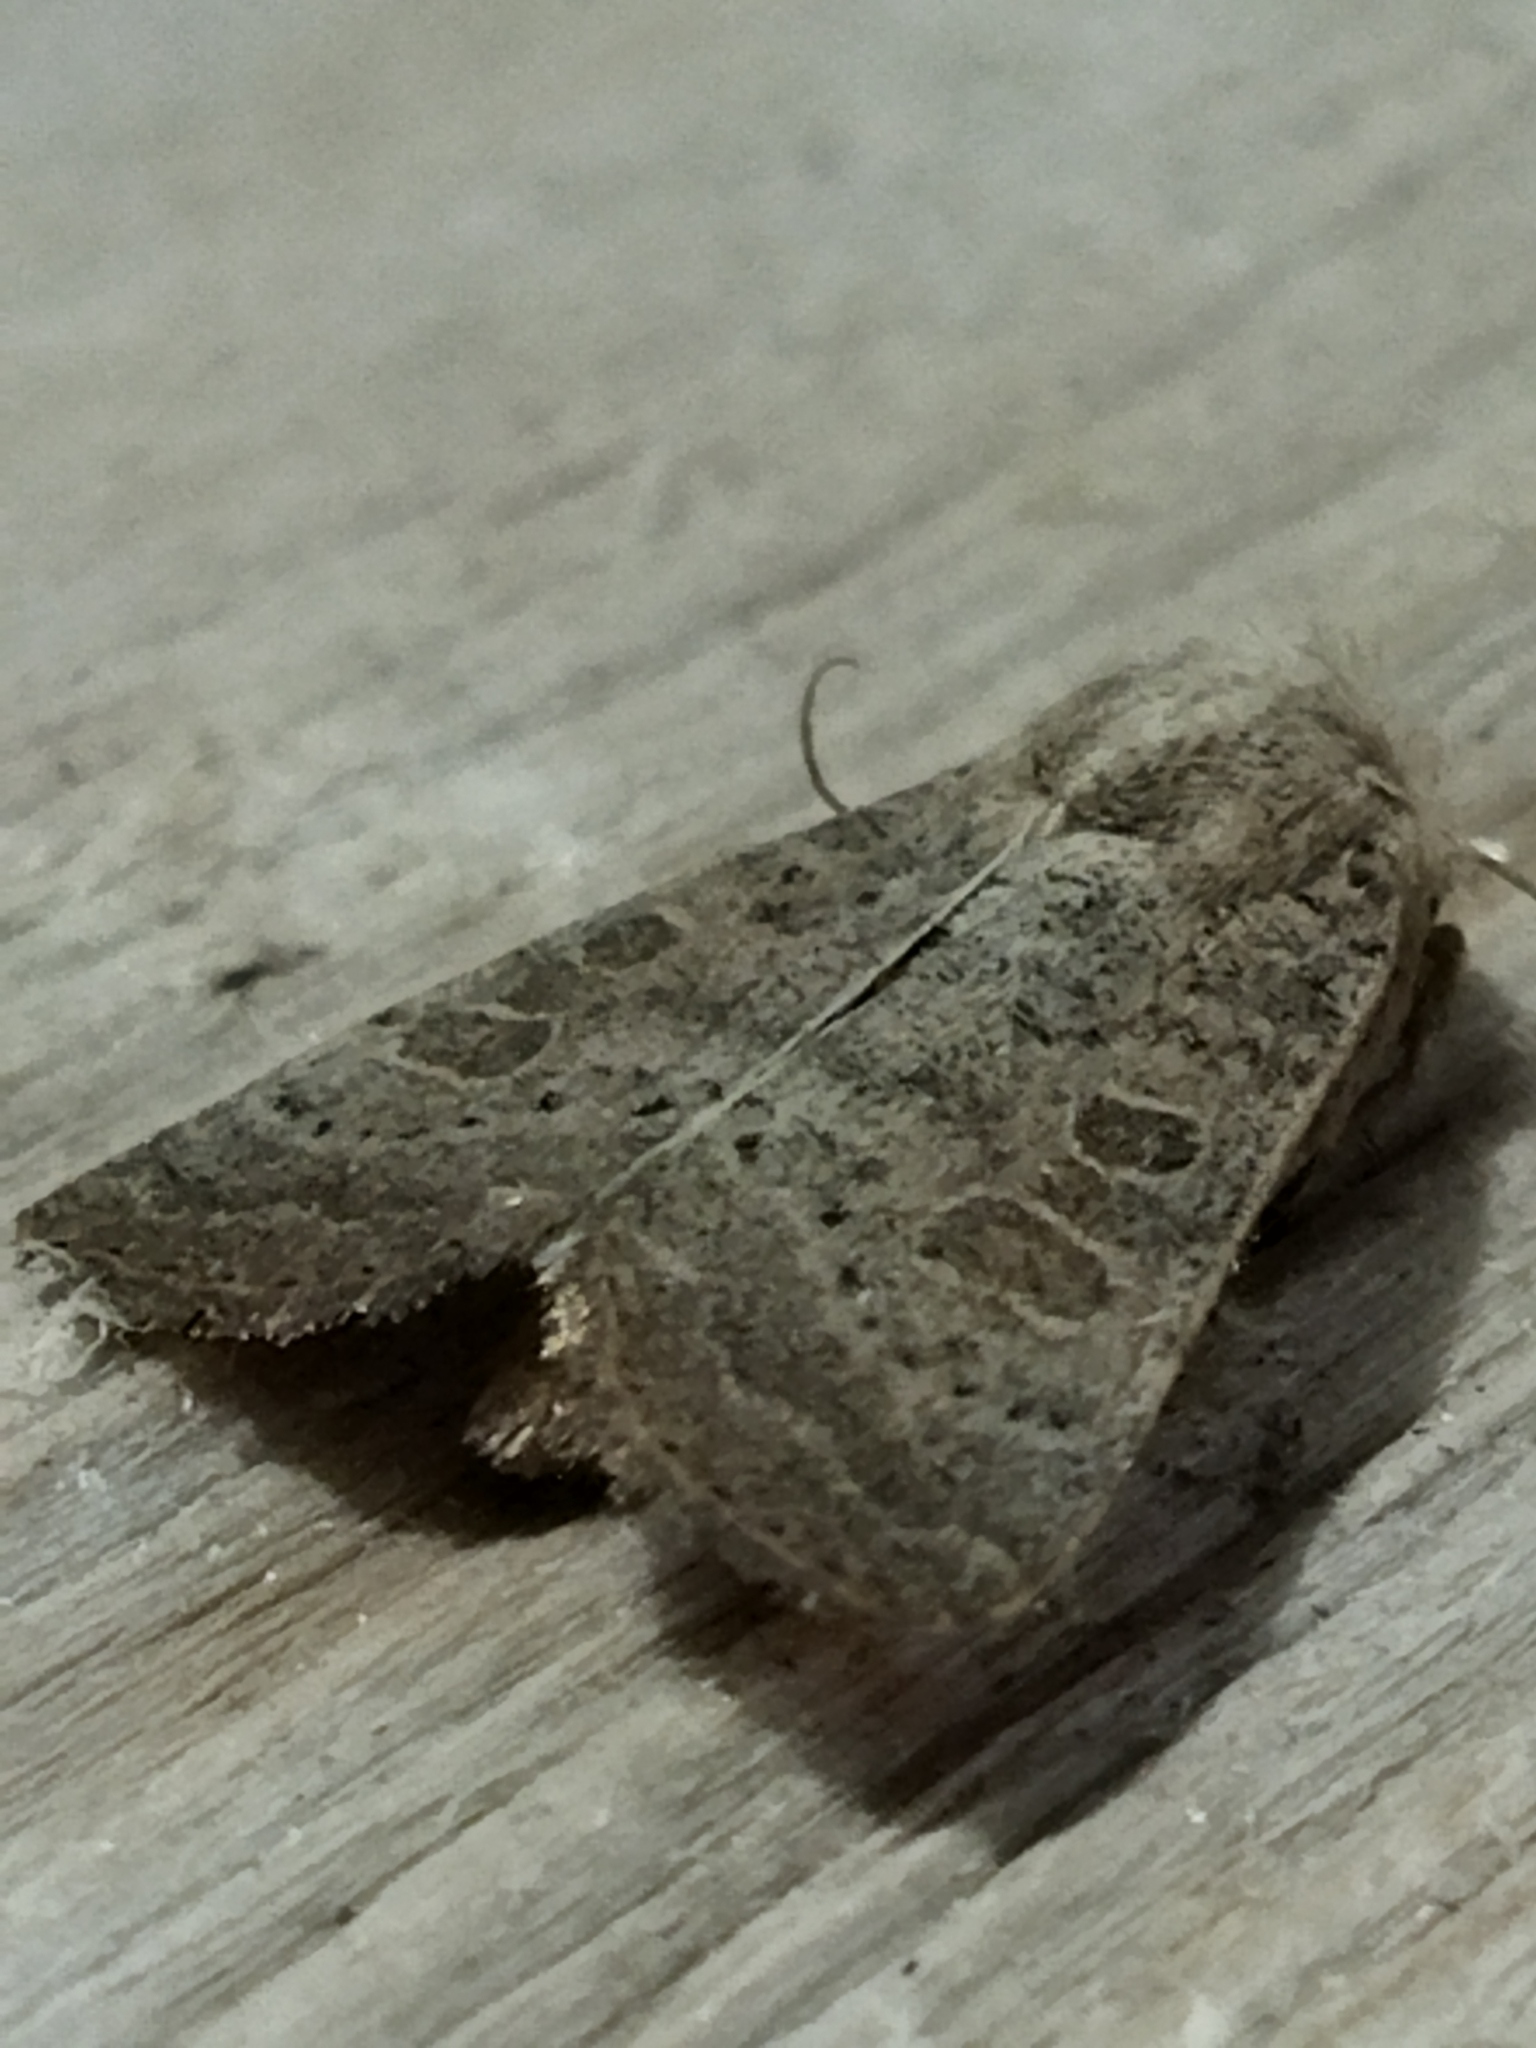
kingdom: Animalia
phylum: Arthropoda
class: Insecta
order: Lepidoptera
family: Noctuidae
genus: Hoplodrina
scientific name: Hoplodrina ambigua
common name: Vine's rustic
